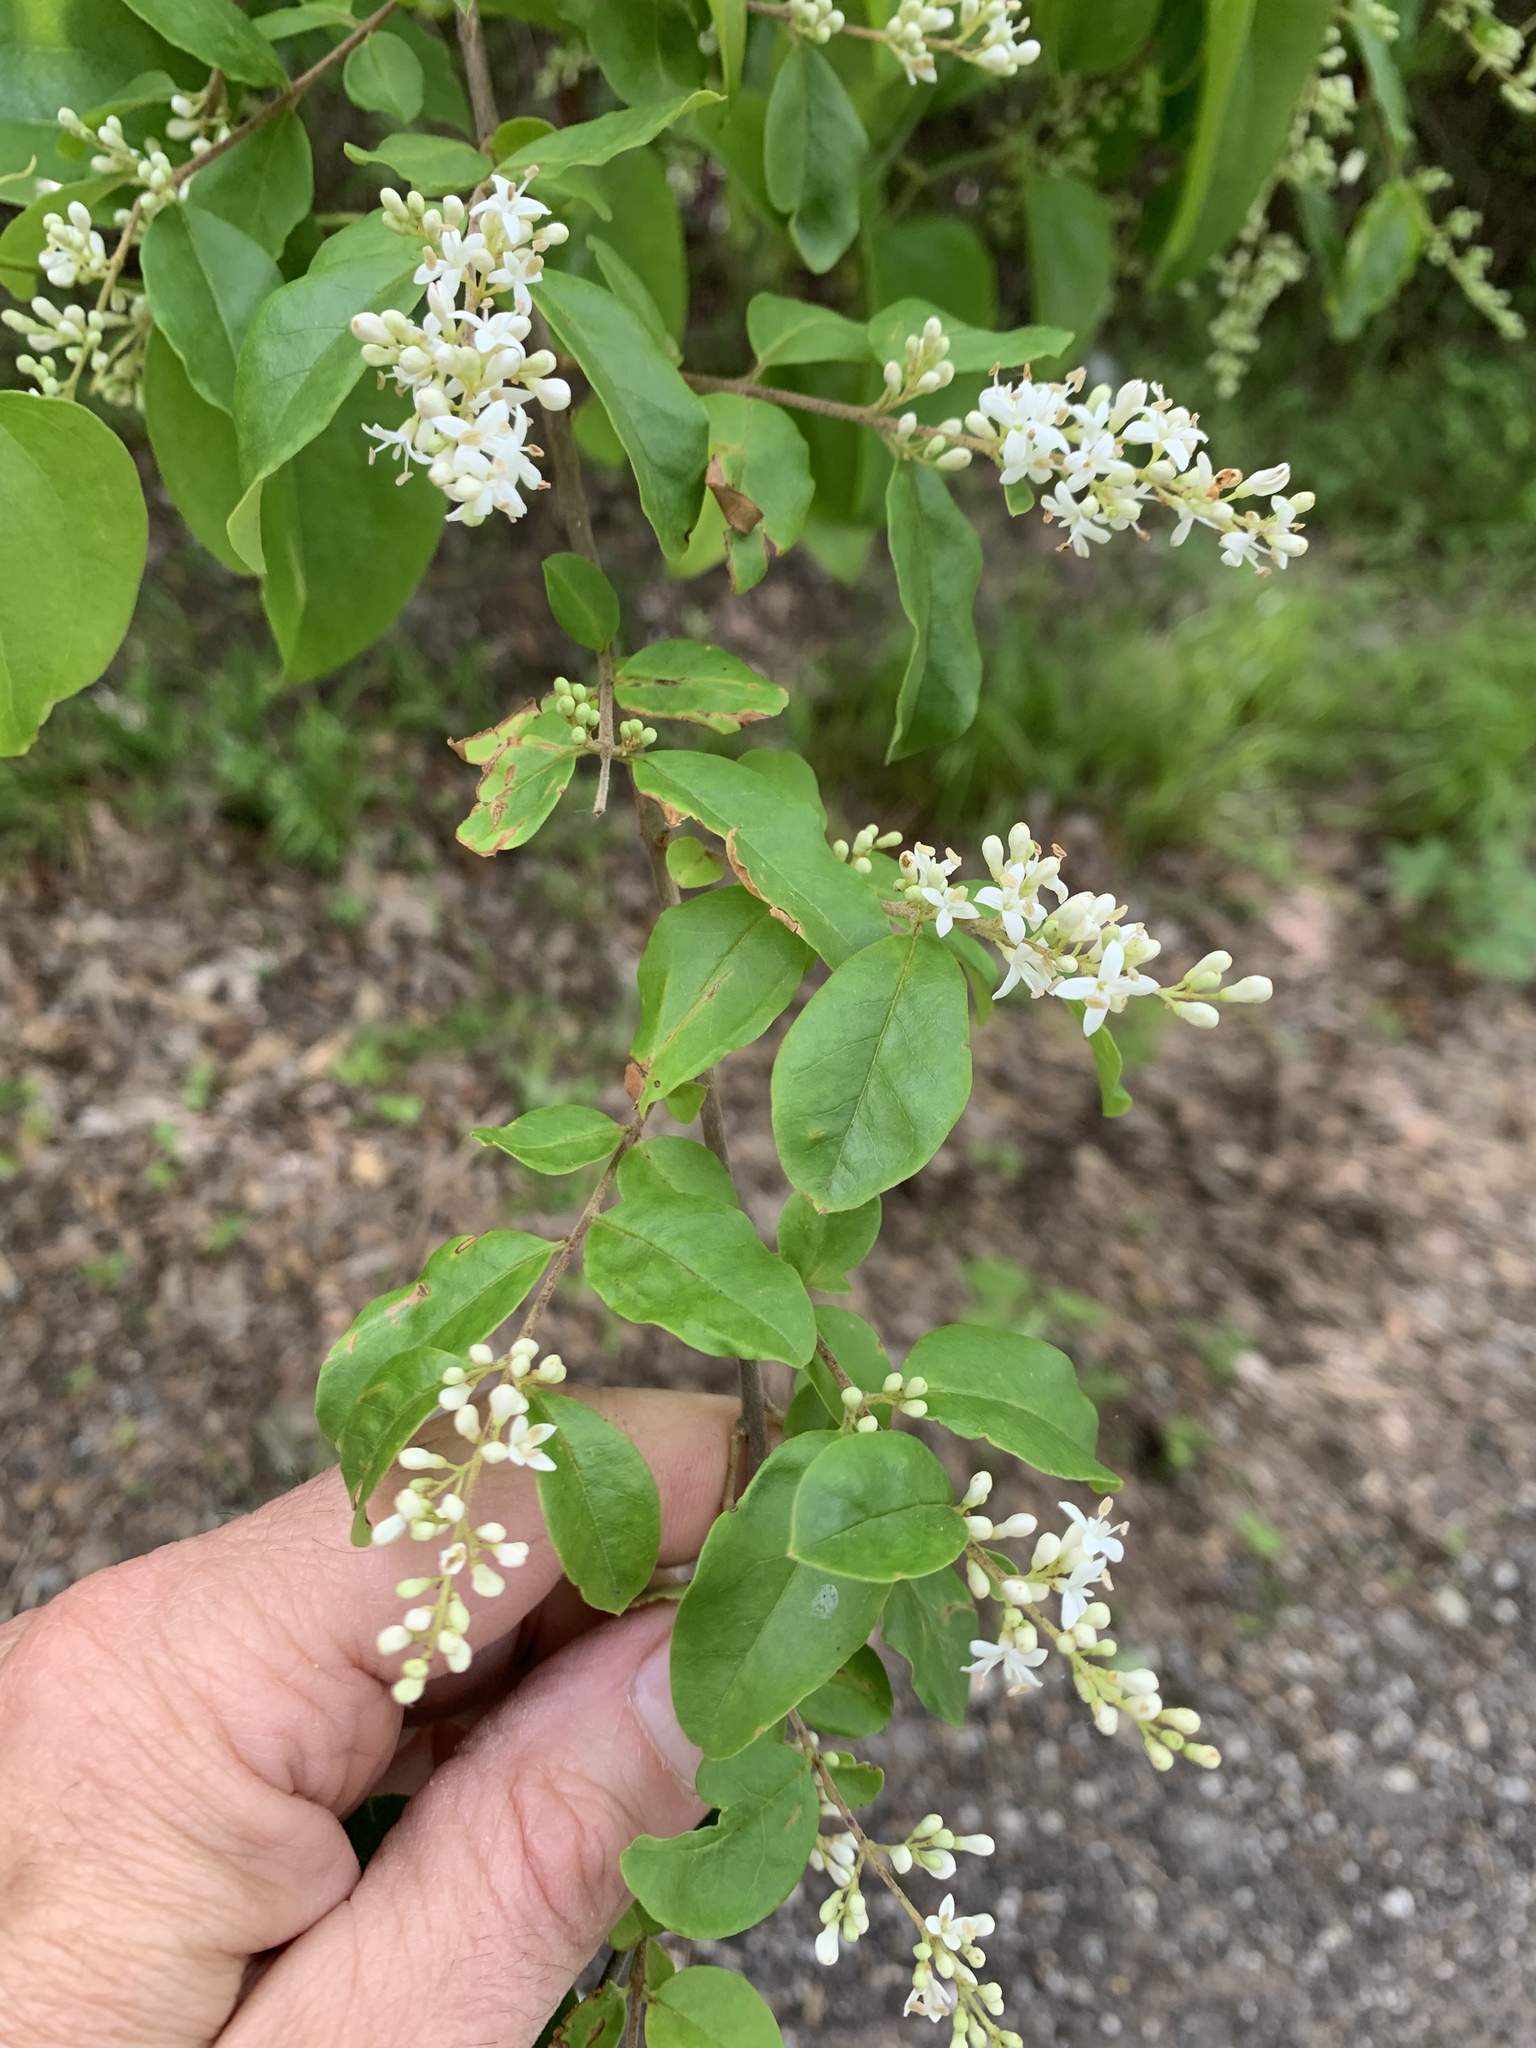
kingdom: Plantae
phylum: Tracheophyta
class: Magnoliopsida
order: Lamiales
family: Oleaceae
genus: Ligustrum
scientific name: Ligustrum sinense
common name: Chinese privet
